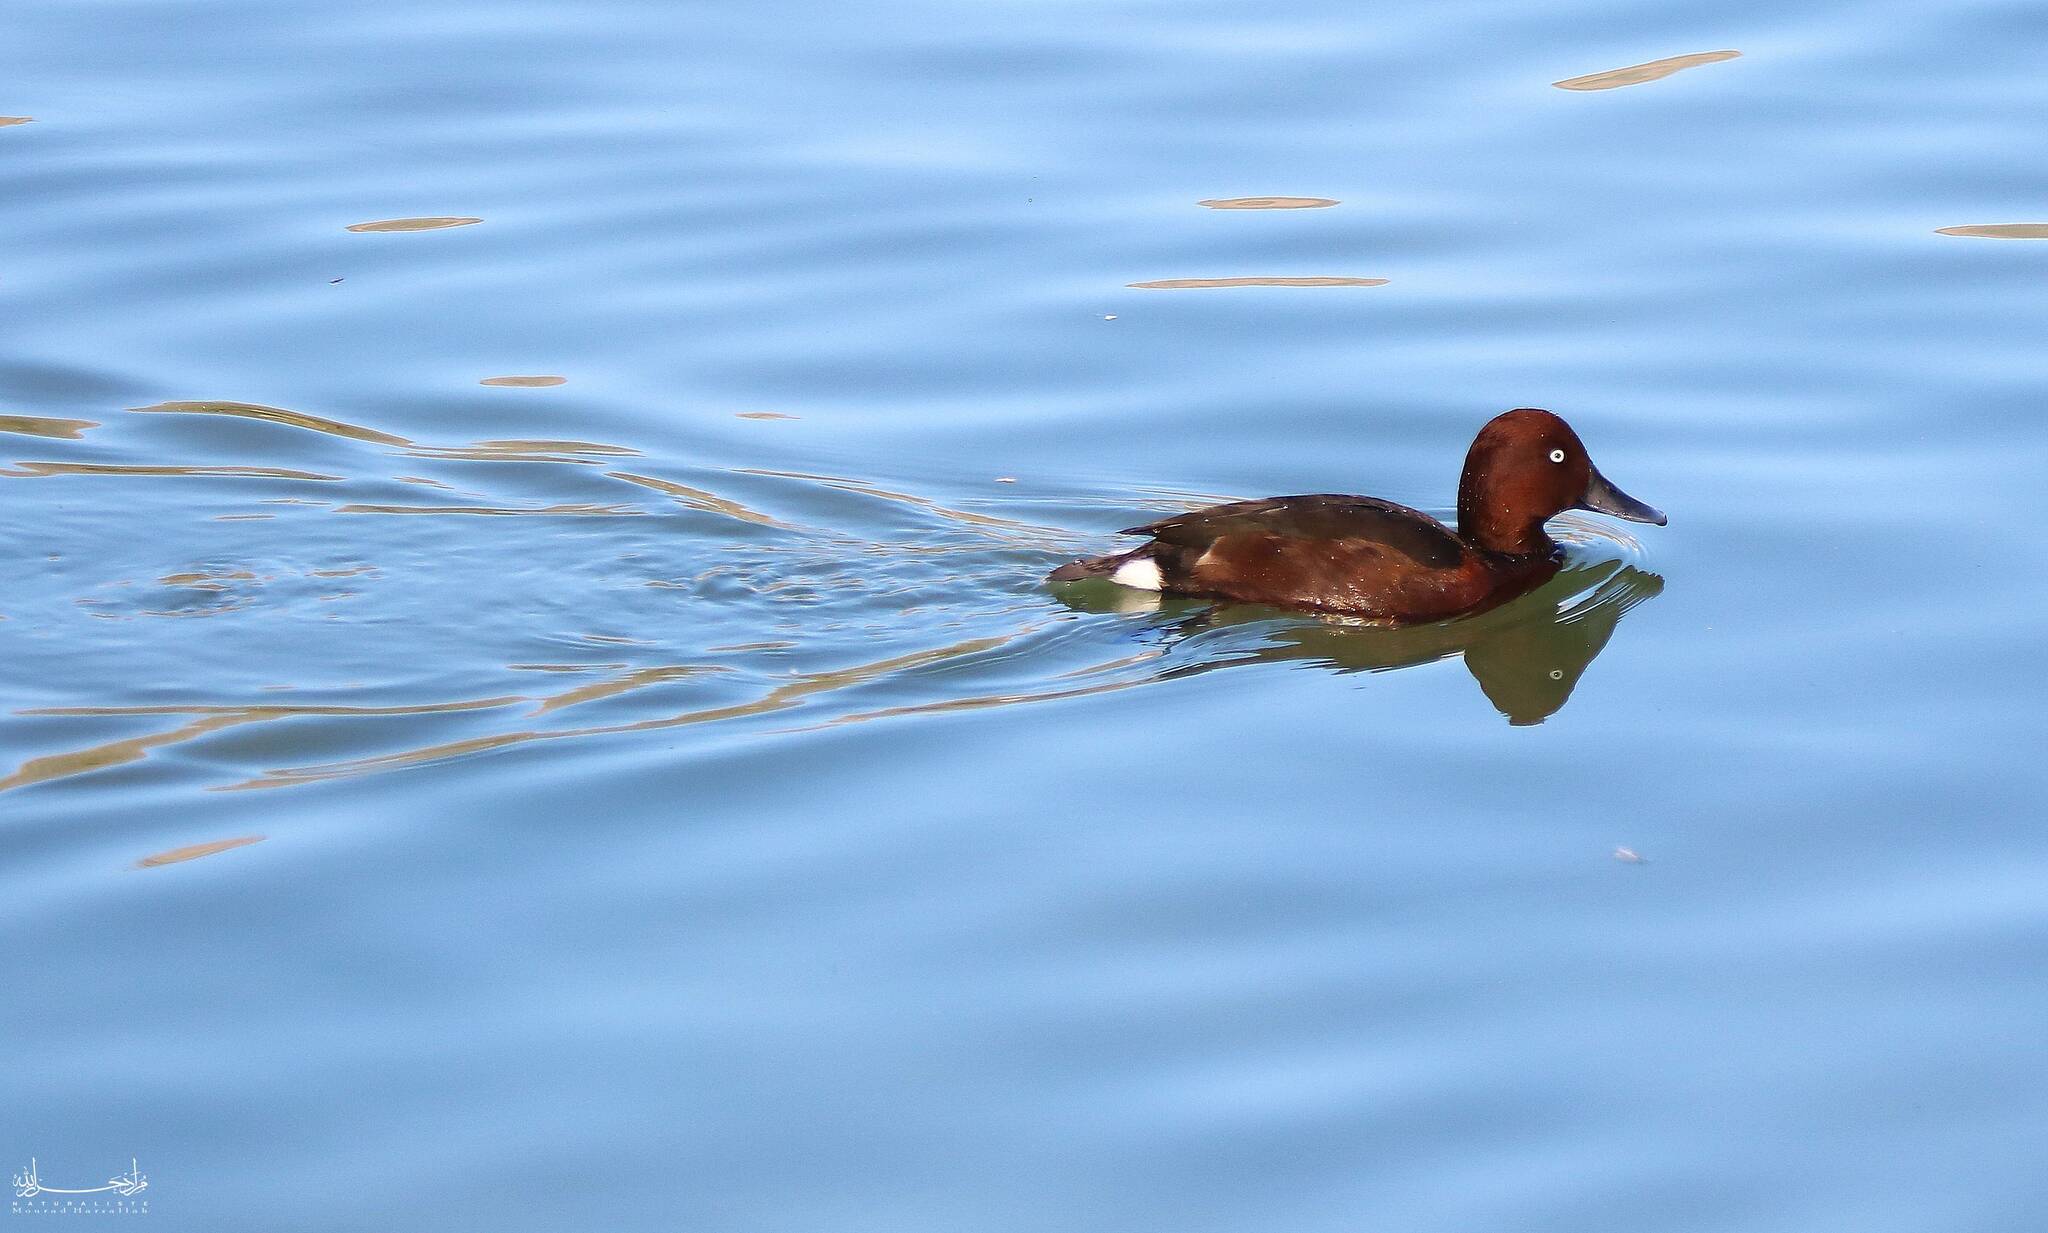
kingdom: Animalia
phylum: Chordata
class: Aves
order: Anseriformes
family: Anatidae
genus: Aythya
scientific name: Aythya nyroca
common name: Ferruginous duck
